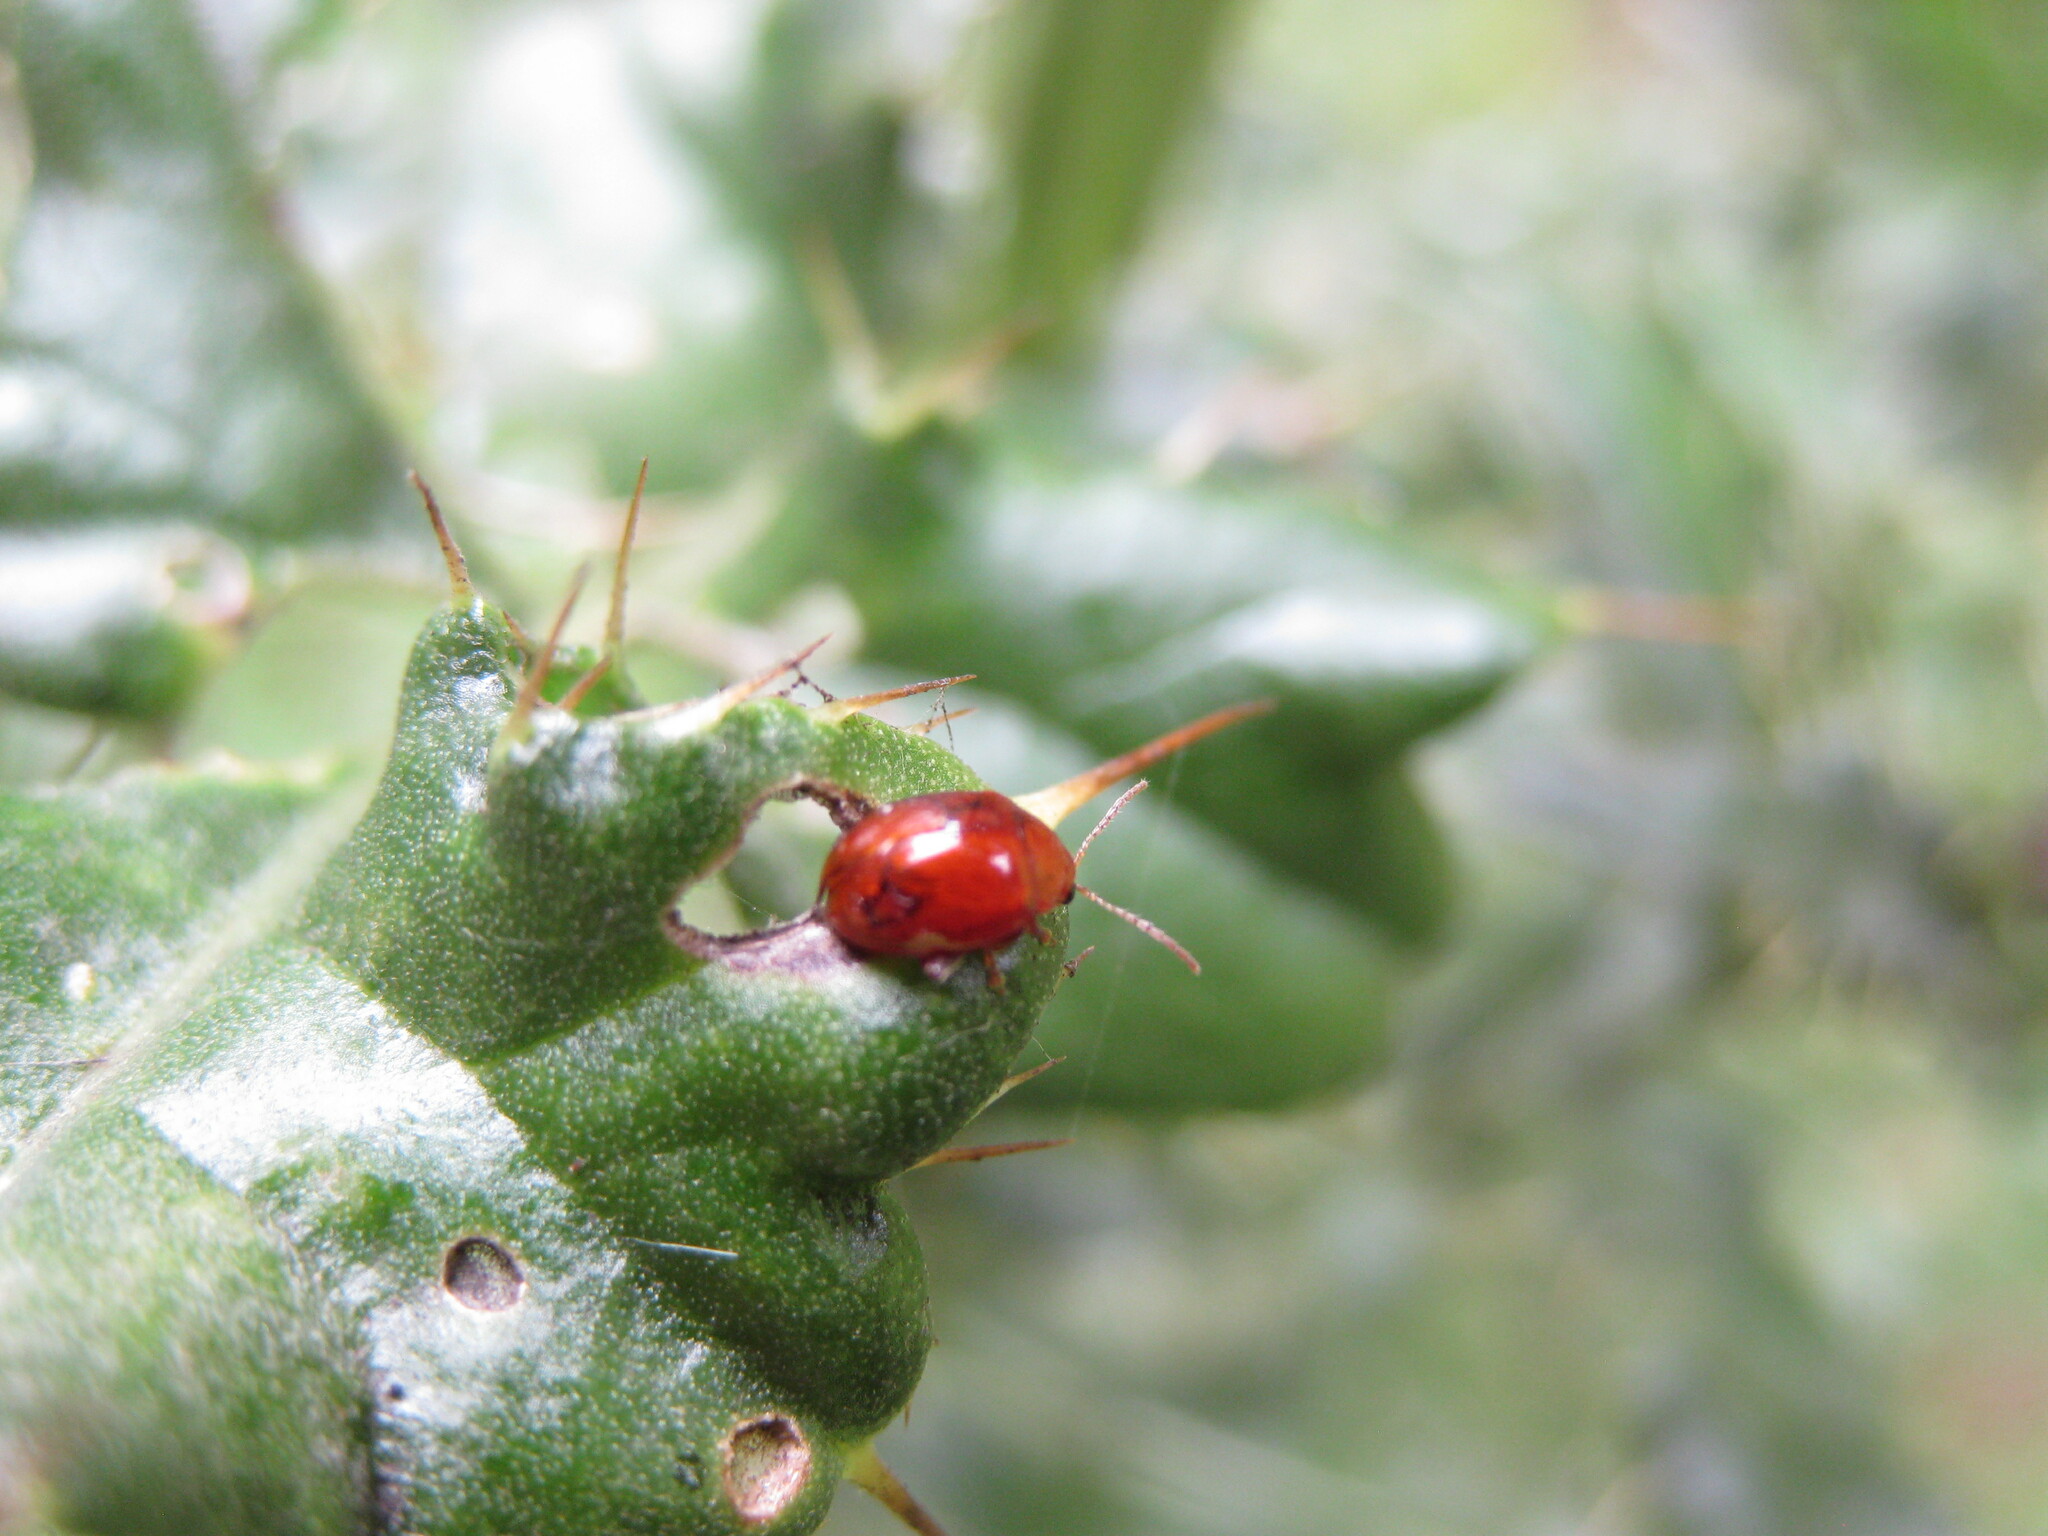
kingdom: Animalia
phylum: Arthropoda
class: Insecta
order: Coleoptera
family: Chrysomelidae
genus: Pistosia
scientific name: Pistosia testacea
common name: Leaf beetle
